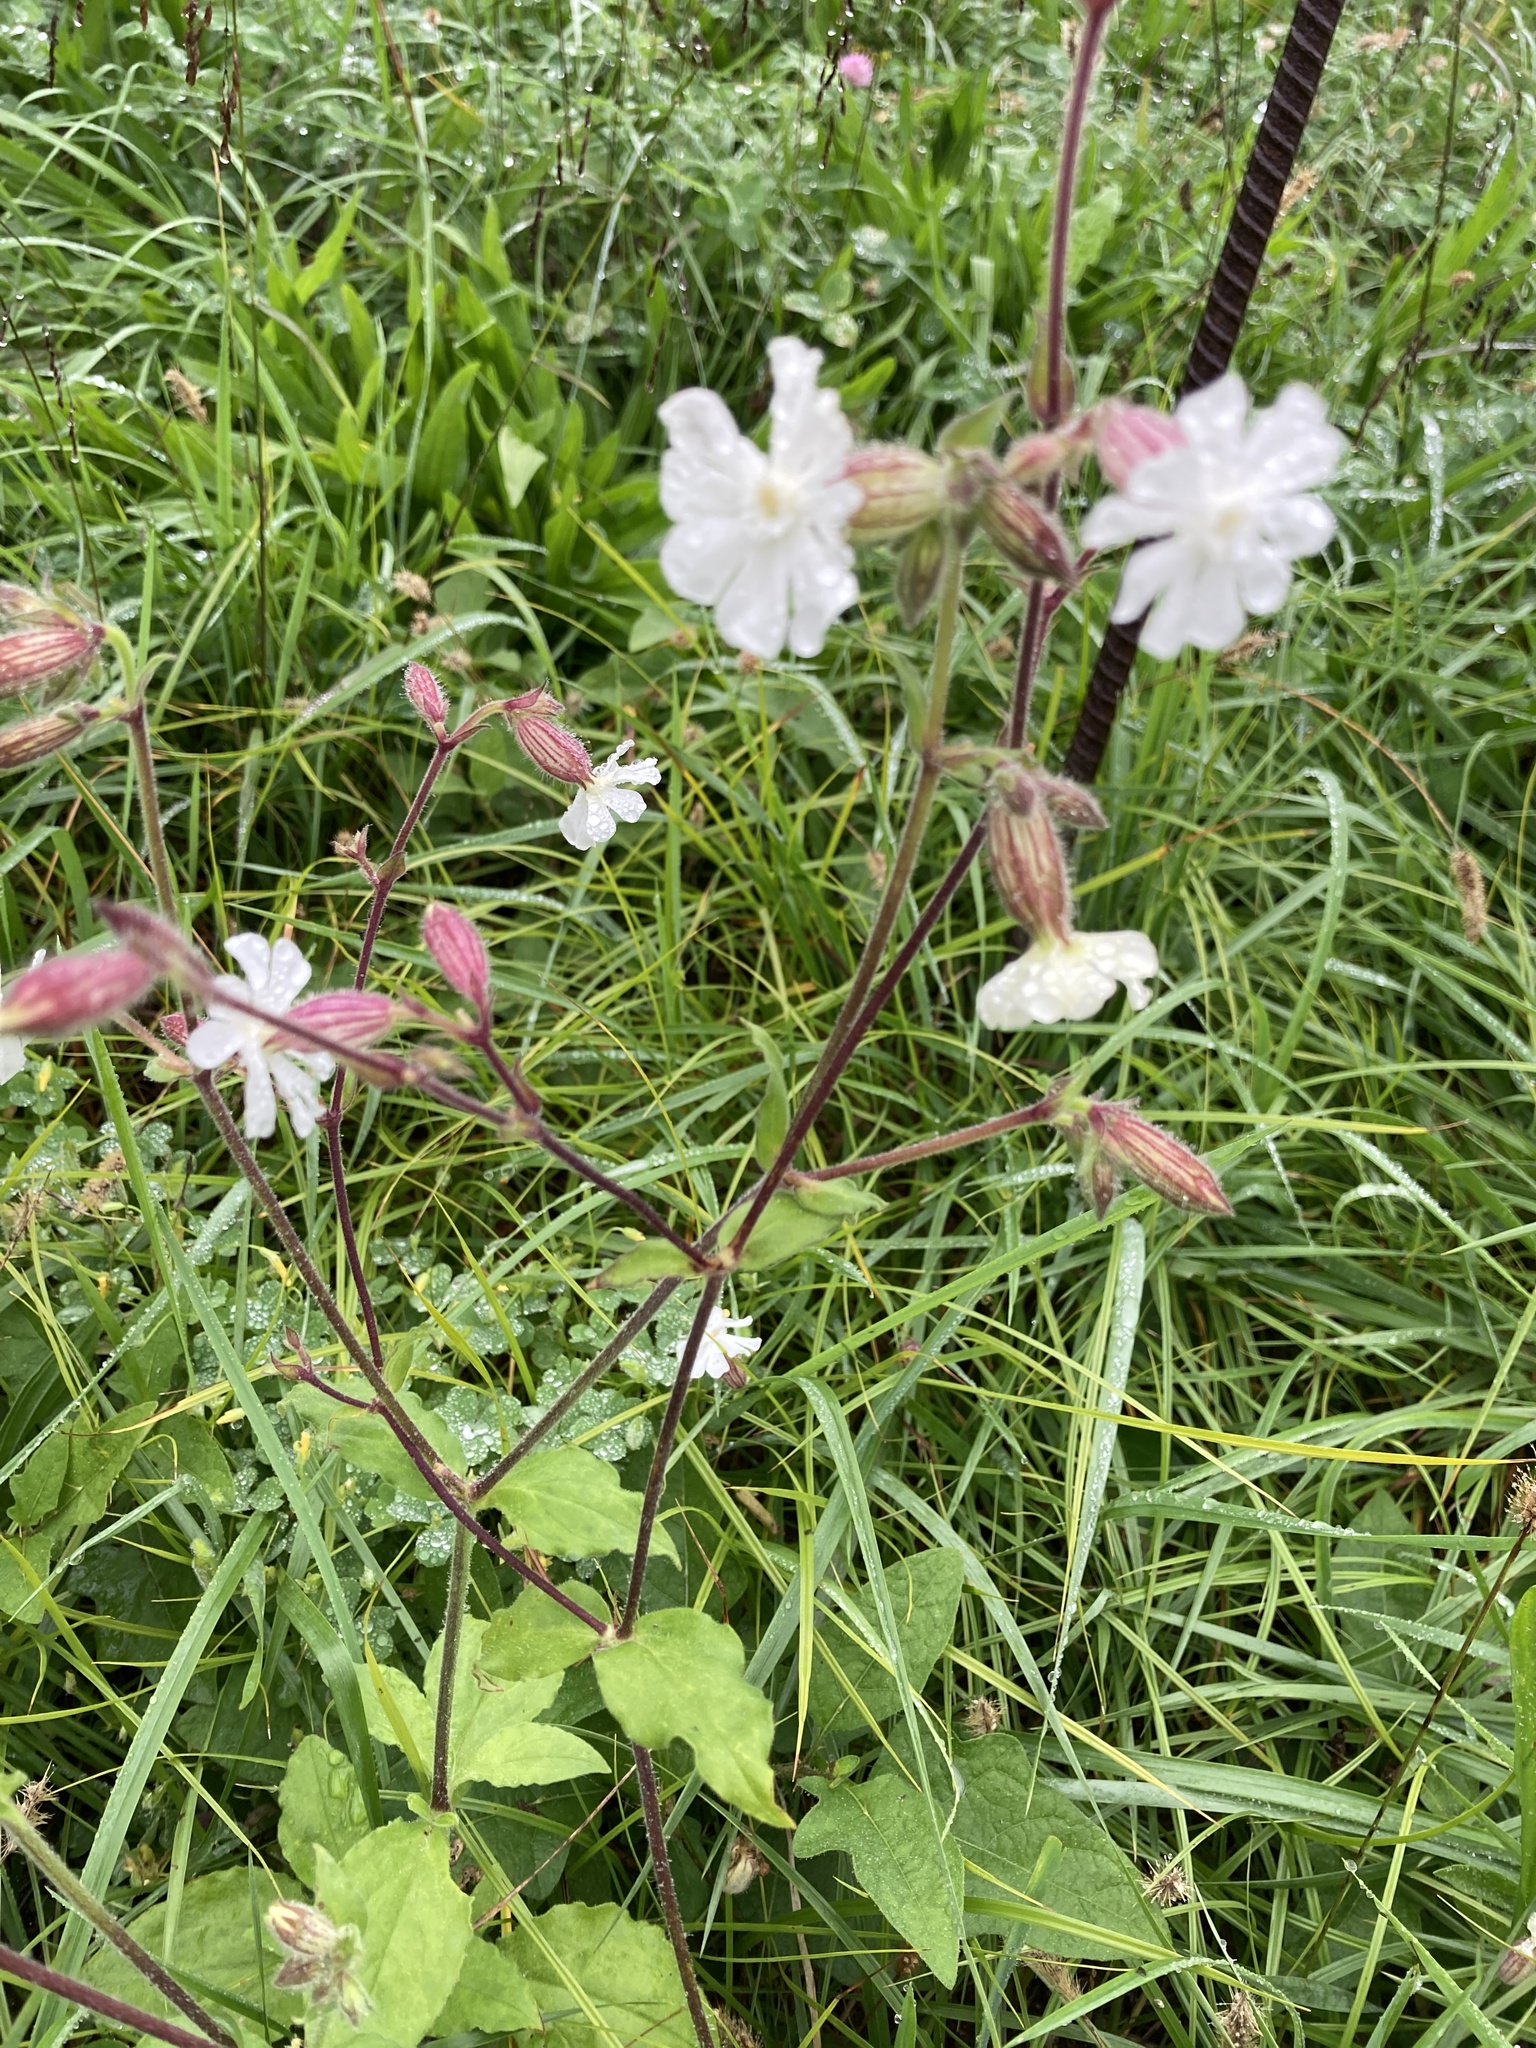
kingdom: Plantae
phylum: Tracheophyta
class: Magnoliopsida
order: Caryophyllales
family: Caryophyllaceae
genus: Silene
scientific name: Silene latifolia
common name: White campion
